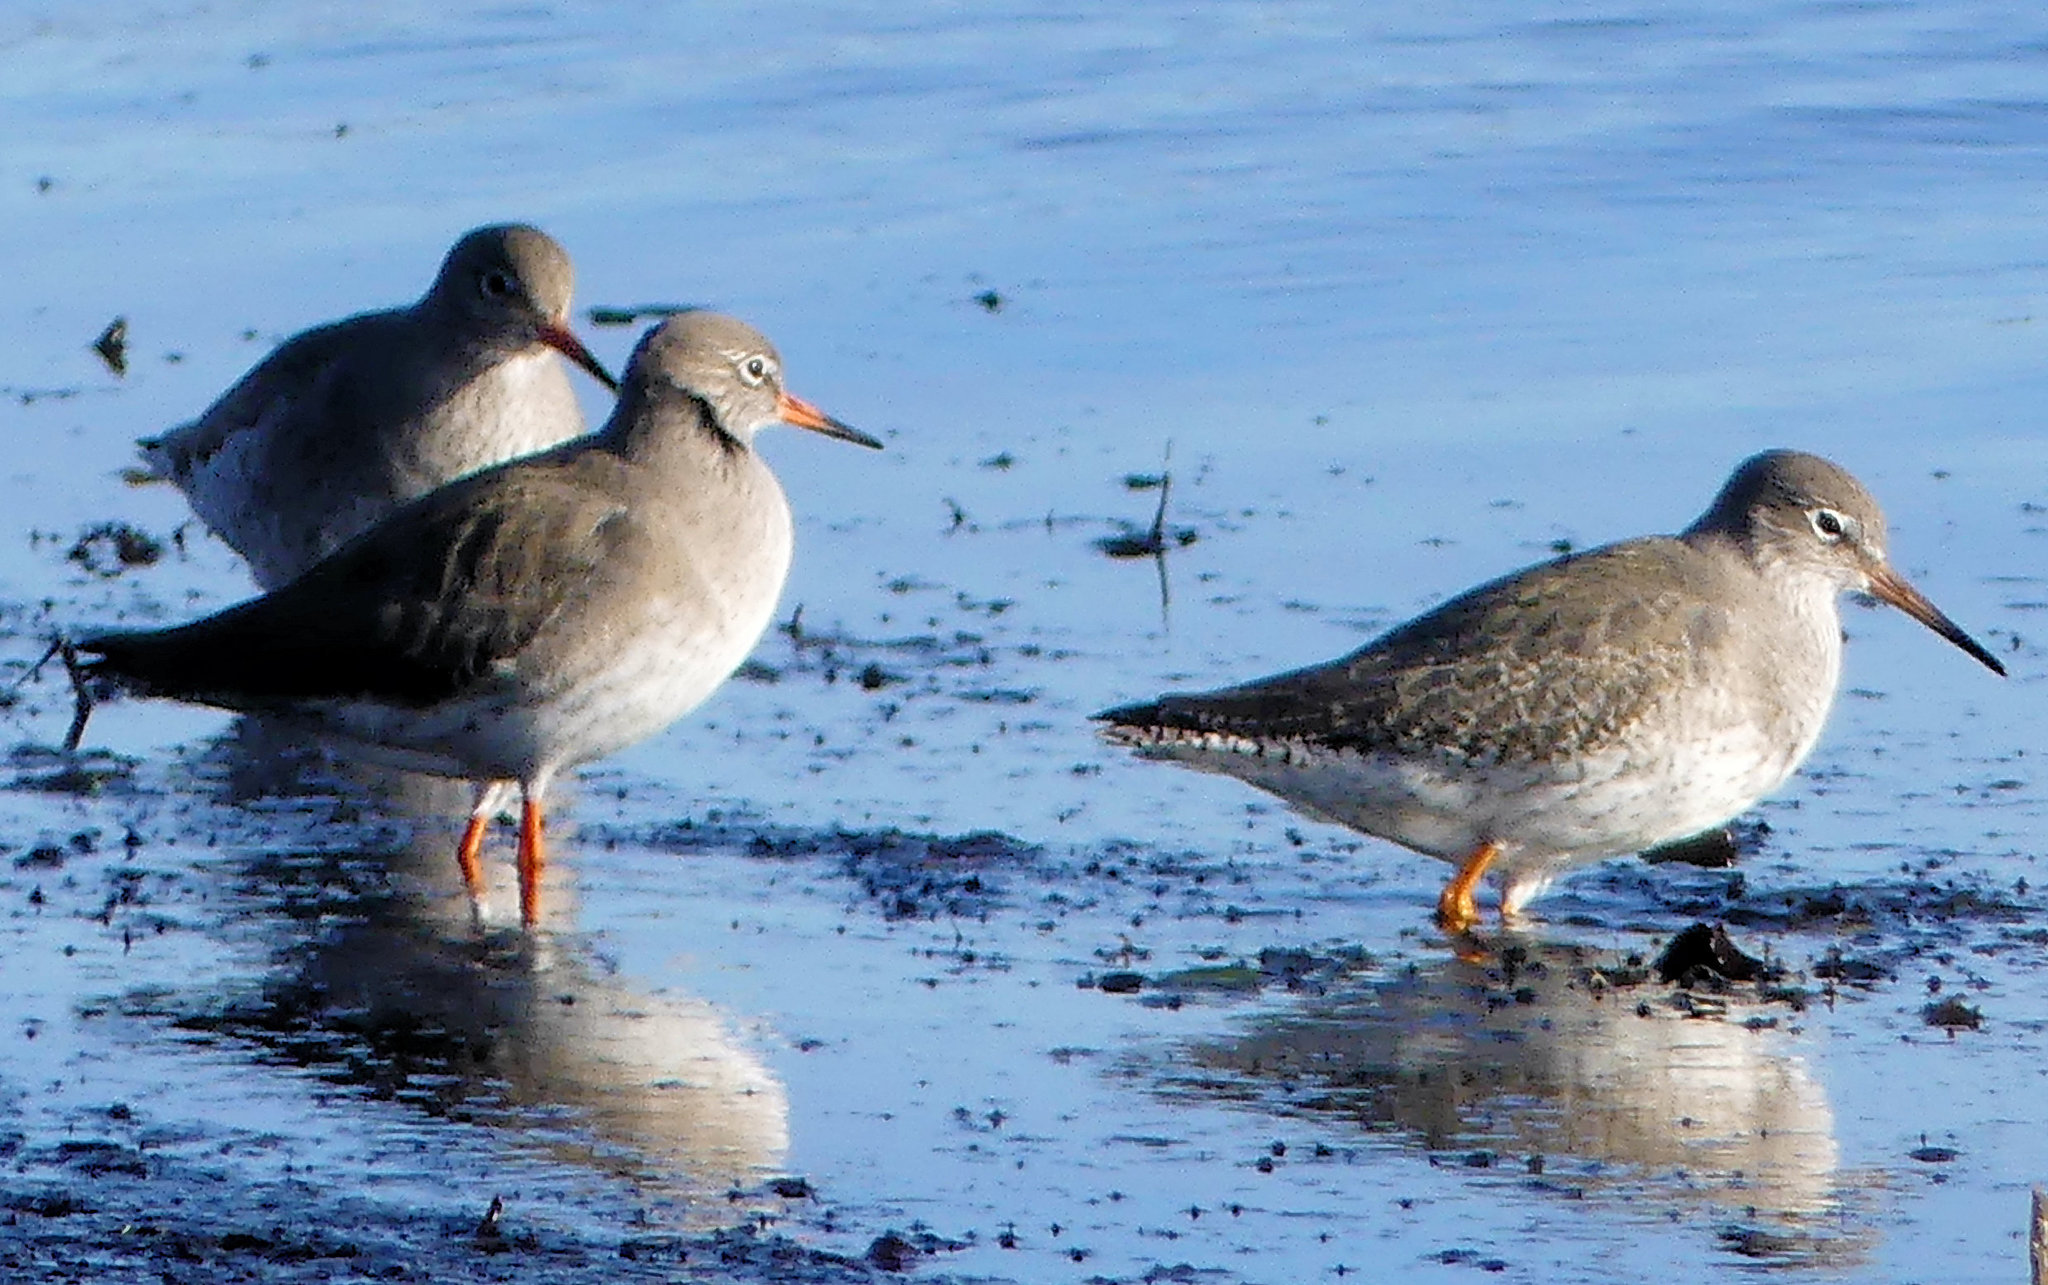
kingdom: Animalia
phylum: Chordata
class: Aves
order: Charadriiformes
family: Scolopacidae
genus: Tringa
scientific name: Tringa totanus
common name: Common redshank
